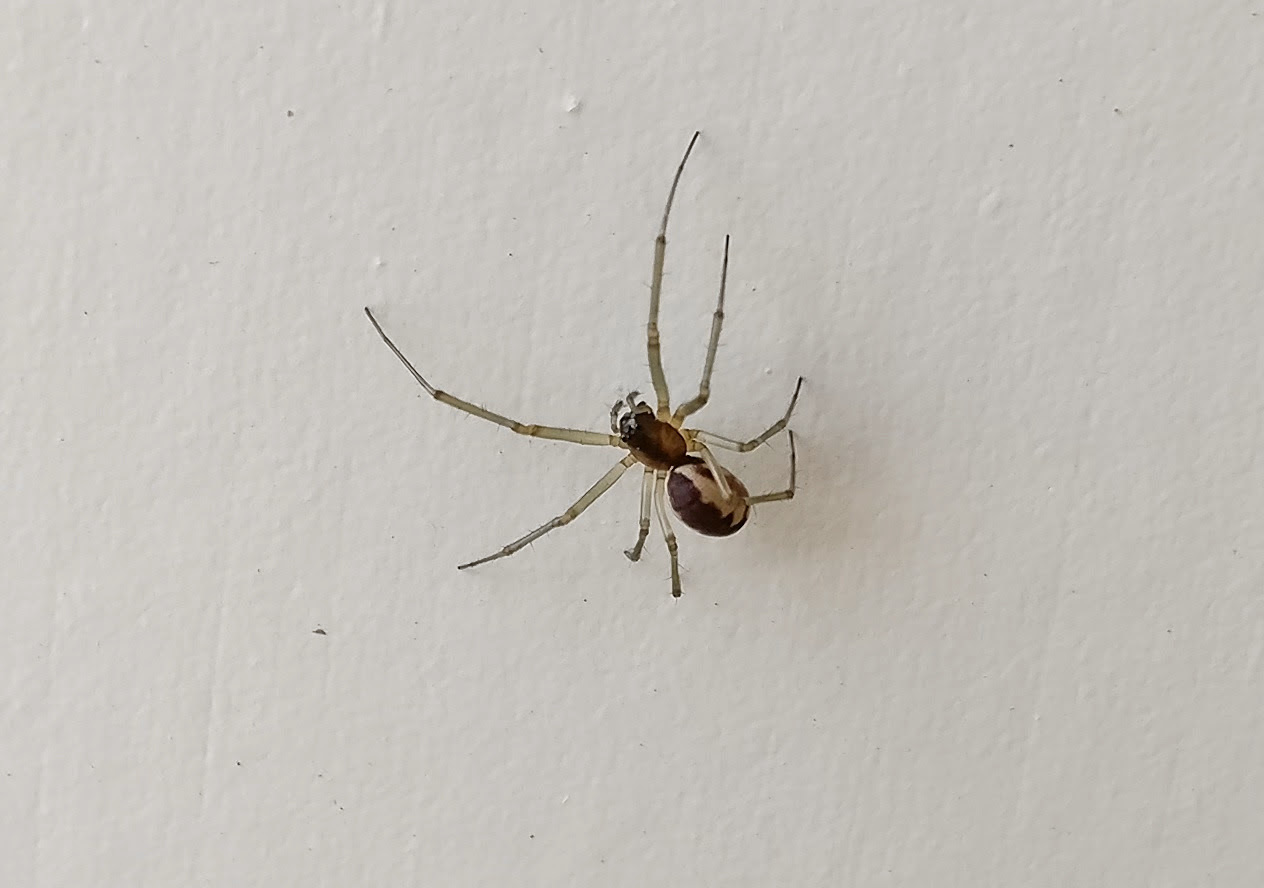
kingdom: Animalia
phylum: Arthropoda
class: Arachnida
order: Araneae
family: Linyphiidae
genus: Neriene
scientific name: Neriene peltata
